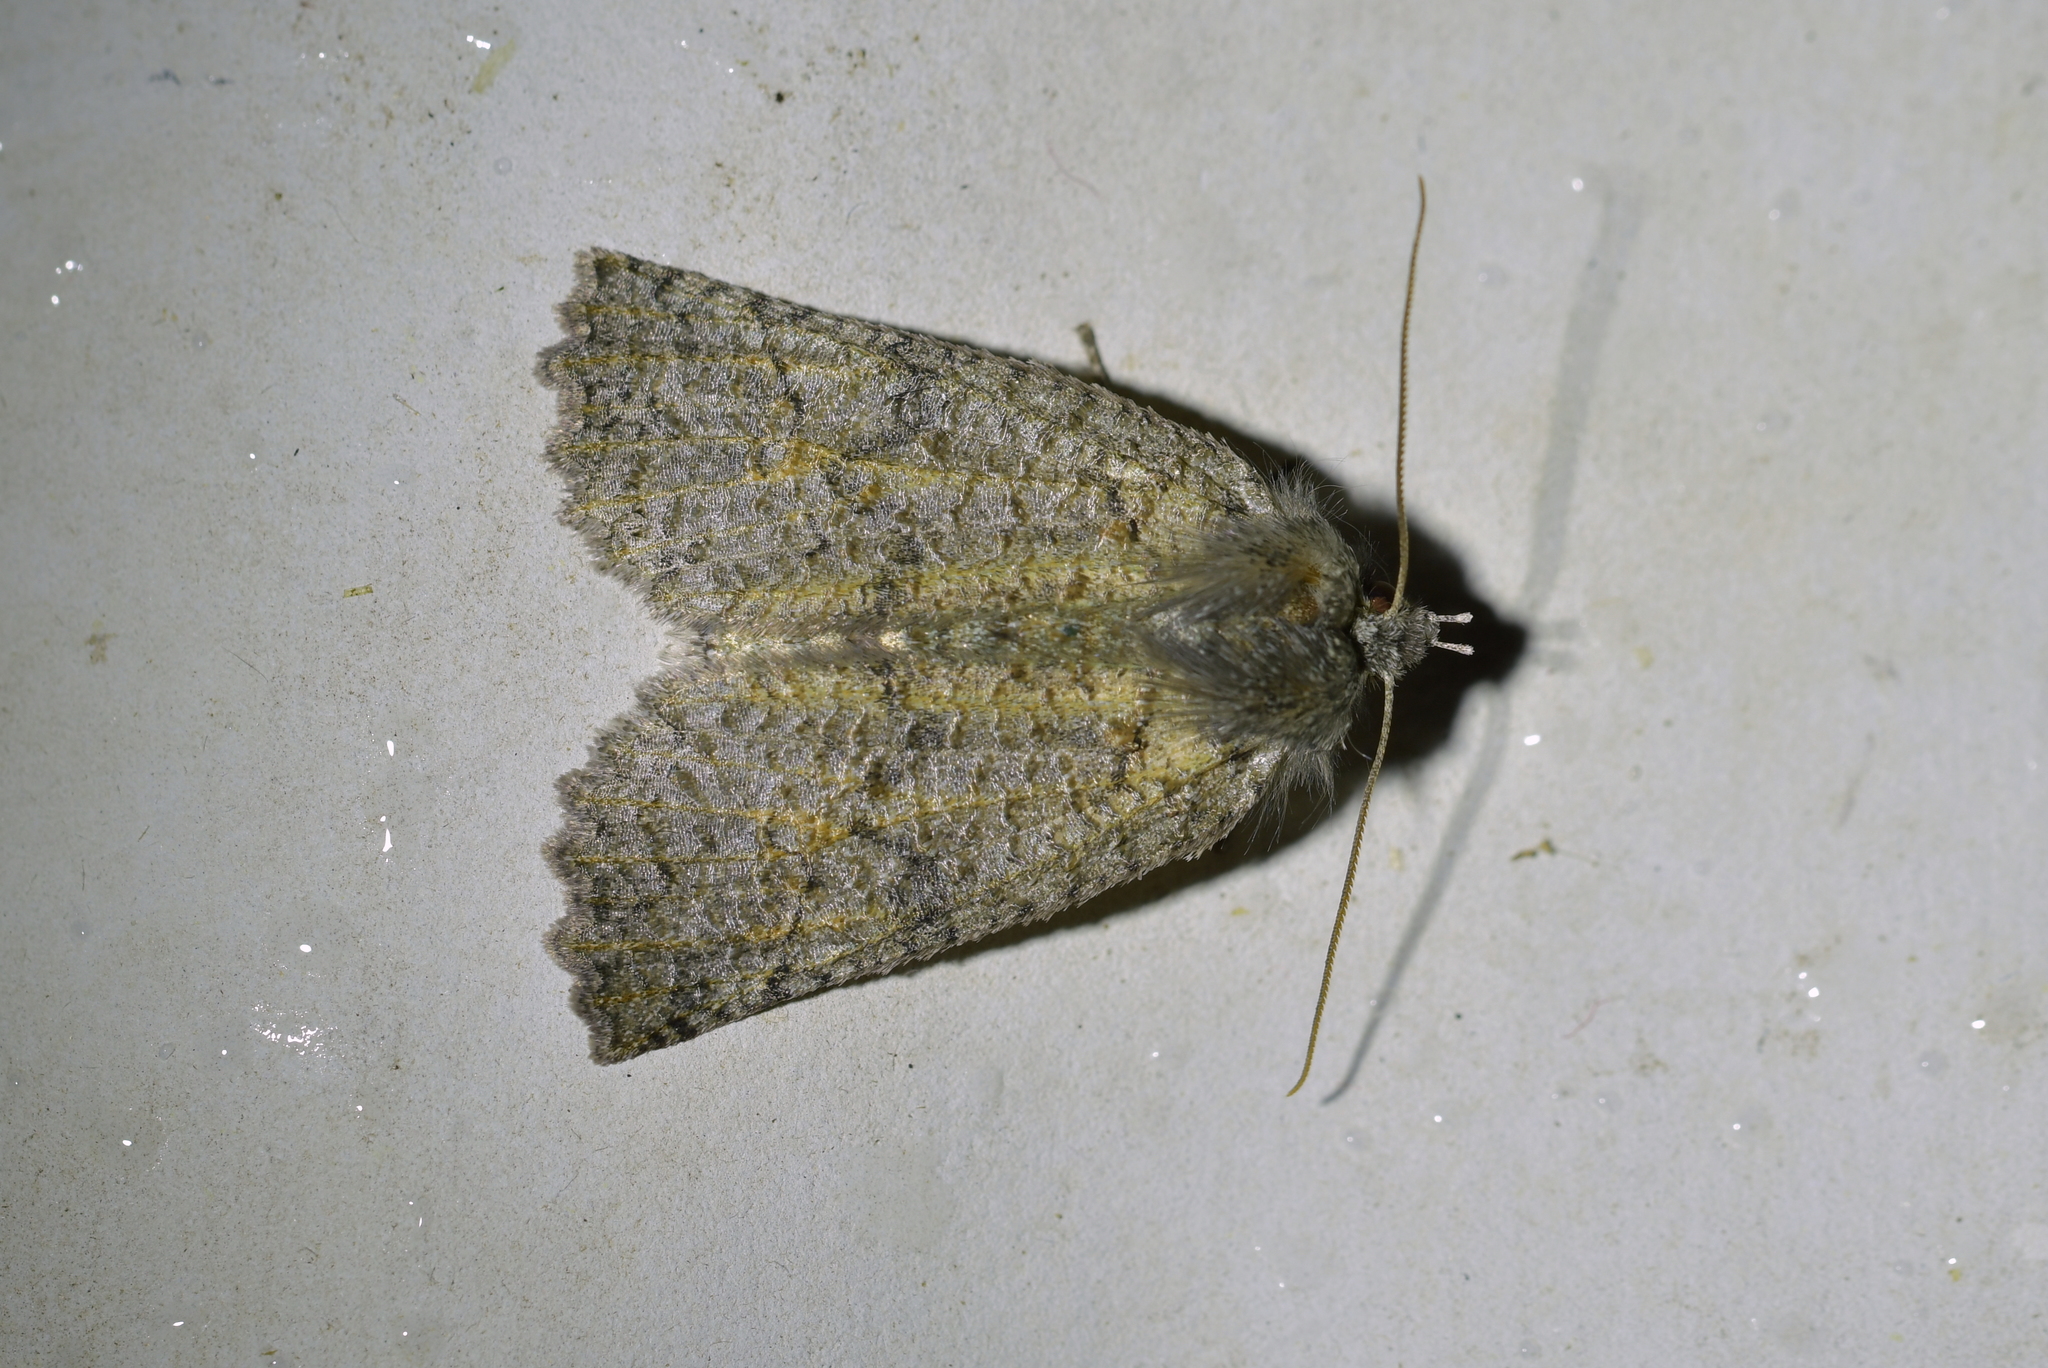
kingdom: Animalia
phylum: Arthropoda
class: Insecta
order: Lepidoptera
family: Geometridae
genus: Declana
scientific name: Declana floccosa
